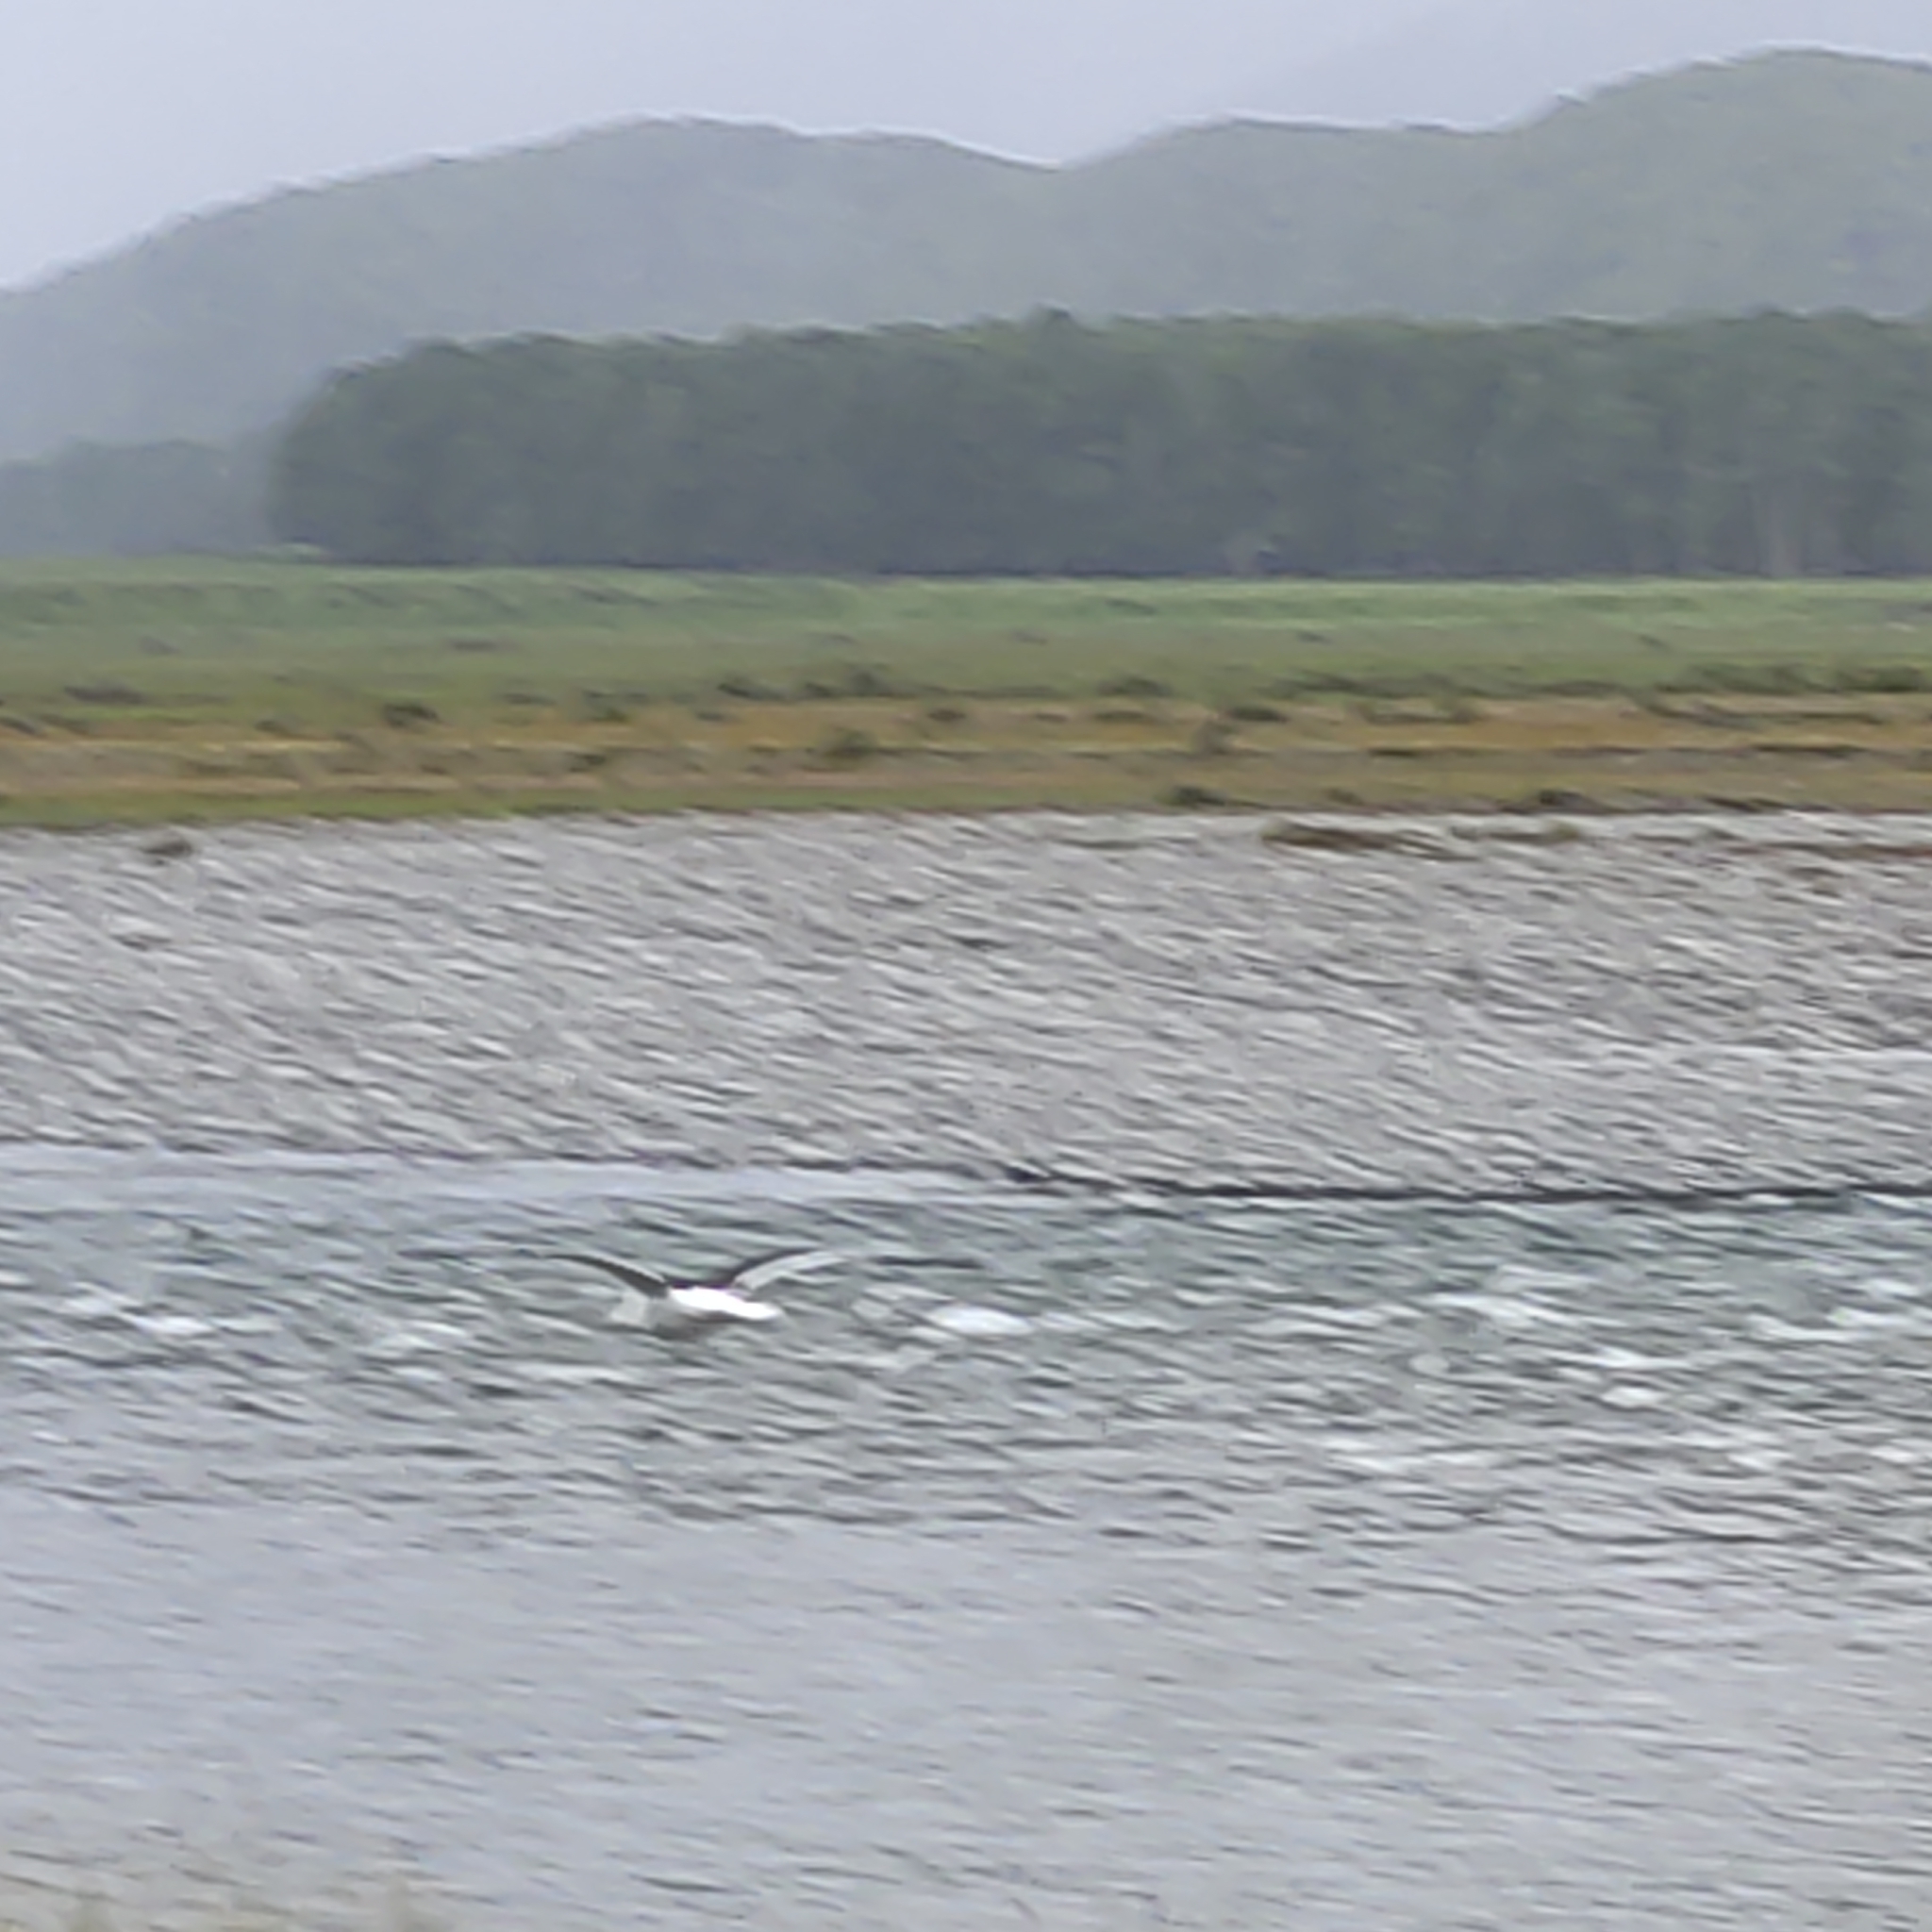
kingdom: Animalia
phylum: Chordata
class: Aves
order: Charadriiformes
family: Laridae
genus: Larus
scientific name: Larus dominicanus
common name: Kelp gull
